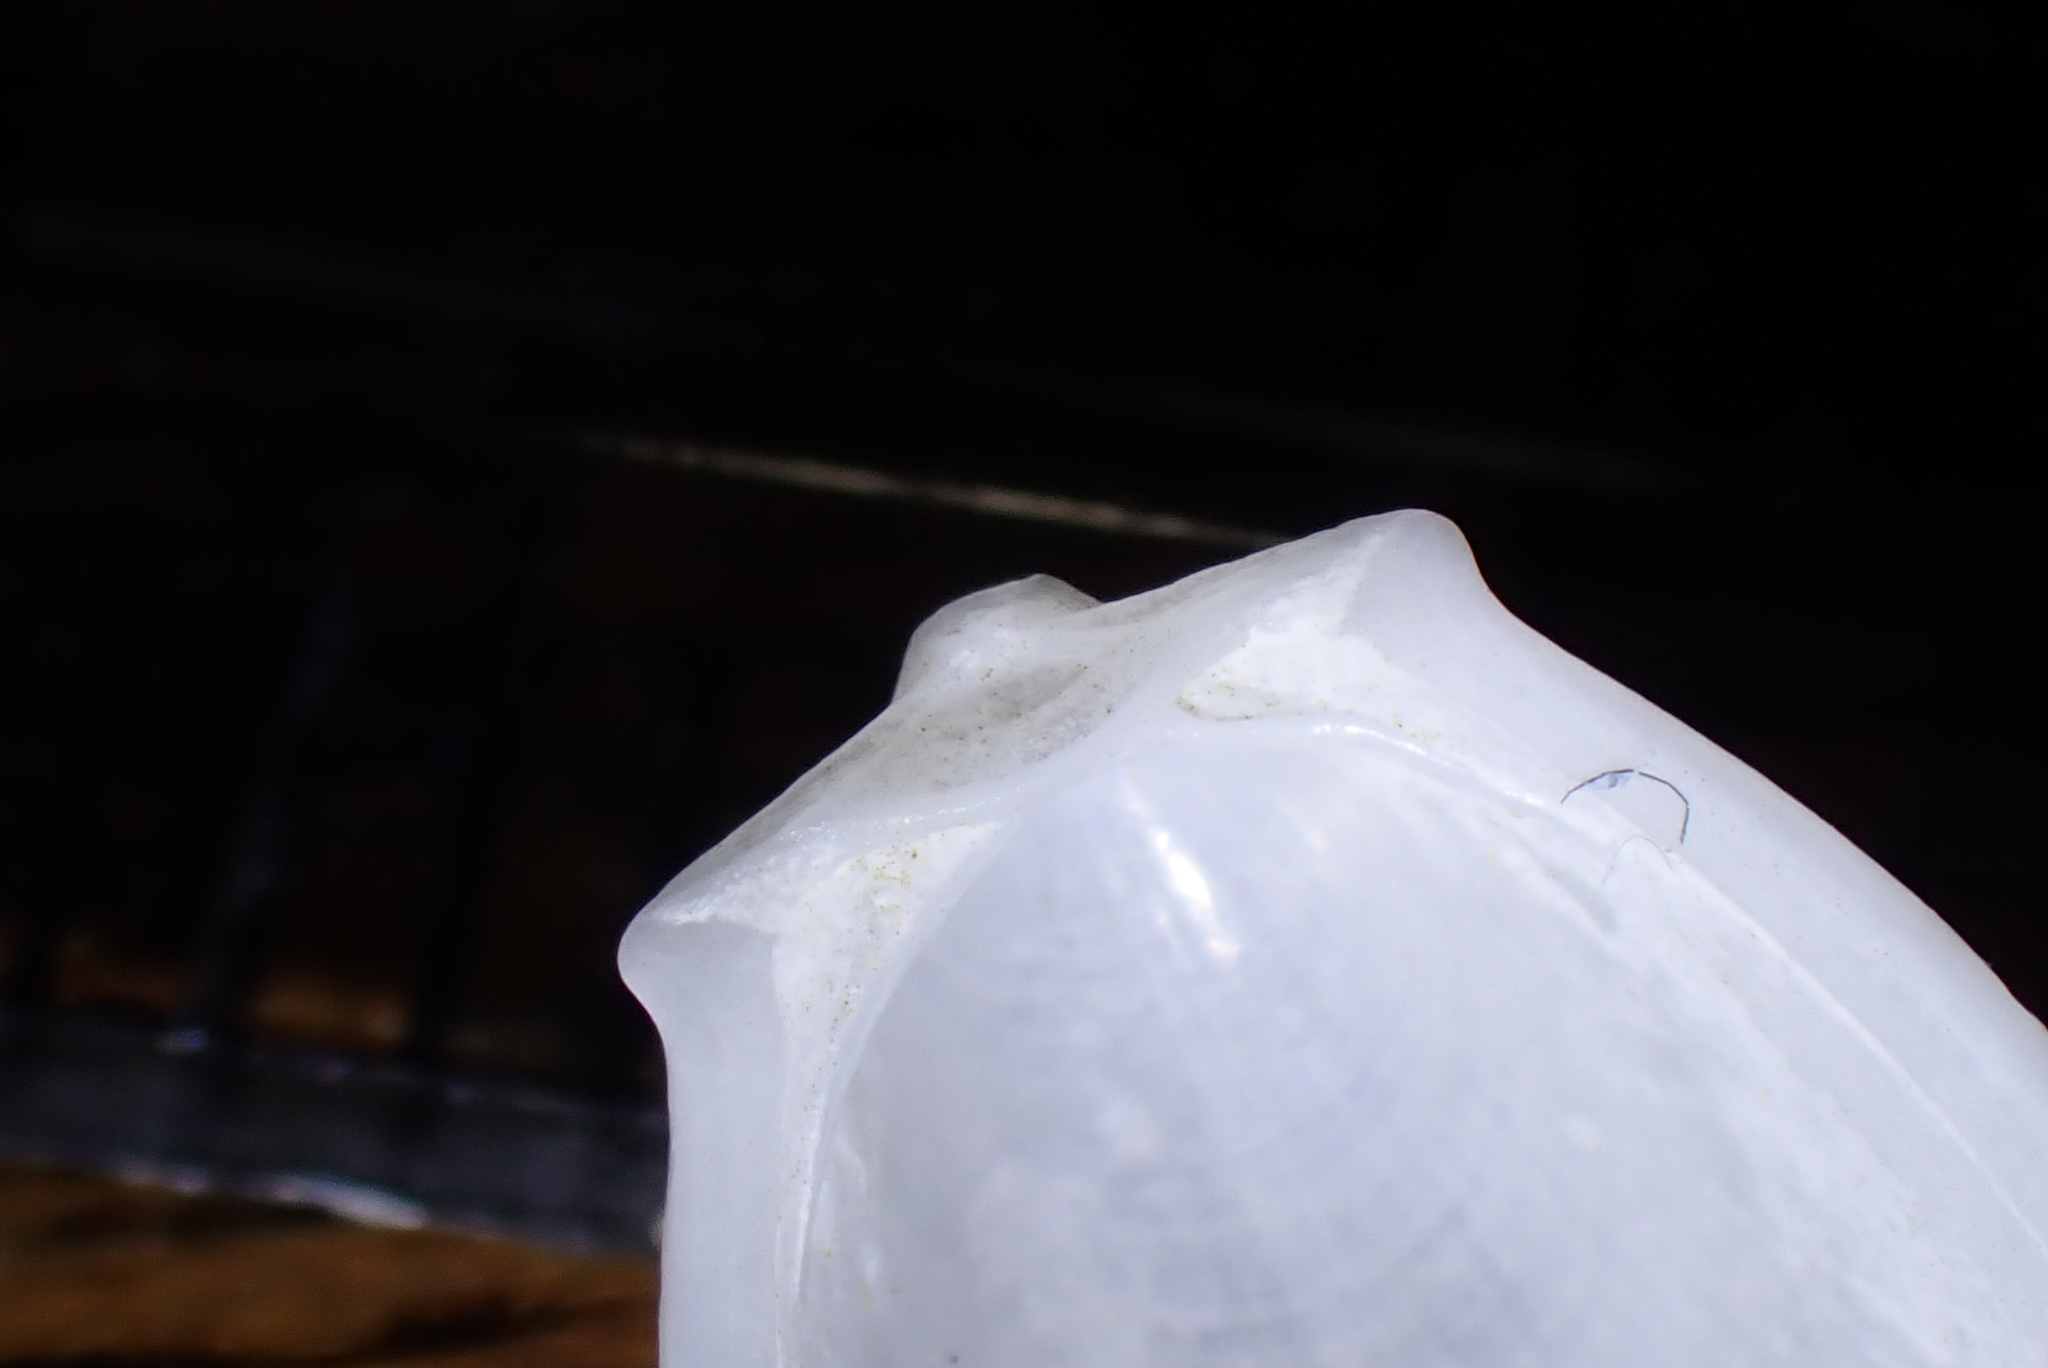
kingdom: Animalia
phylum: Mollusca
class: Bivalvia
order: Limida
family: Limidae
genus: Limatula
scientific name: Limatula maoria
